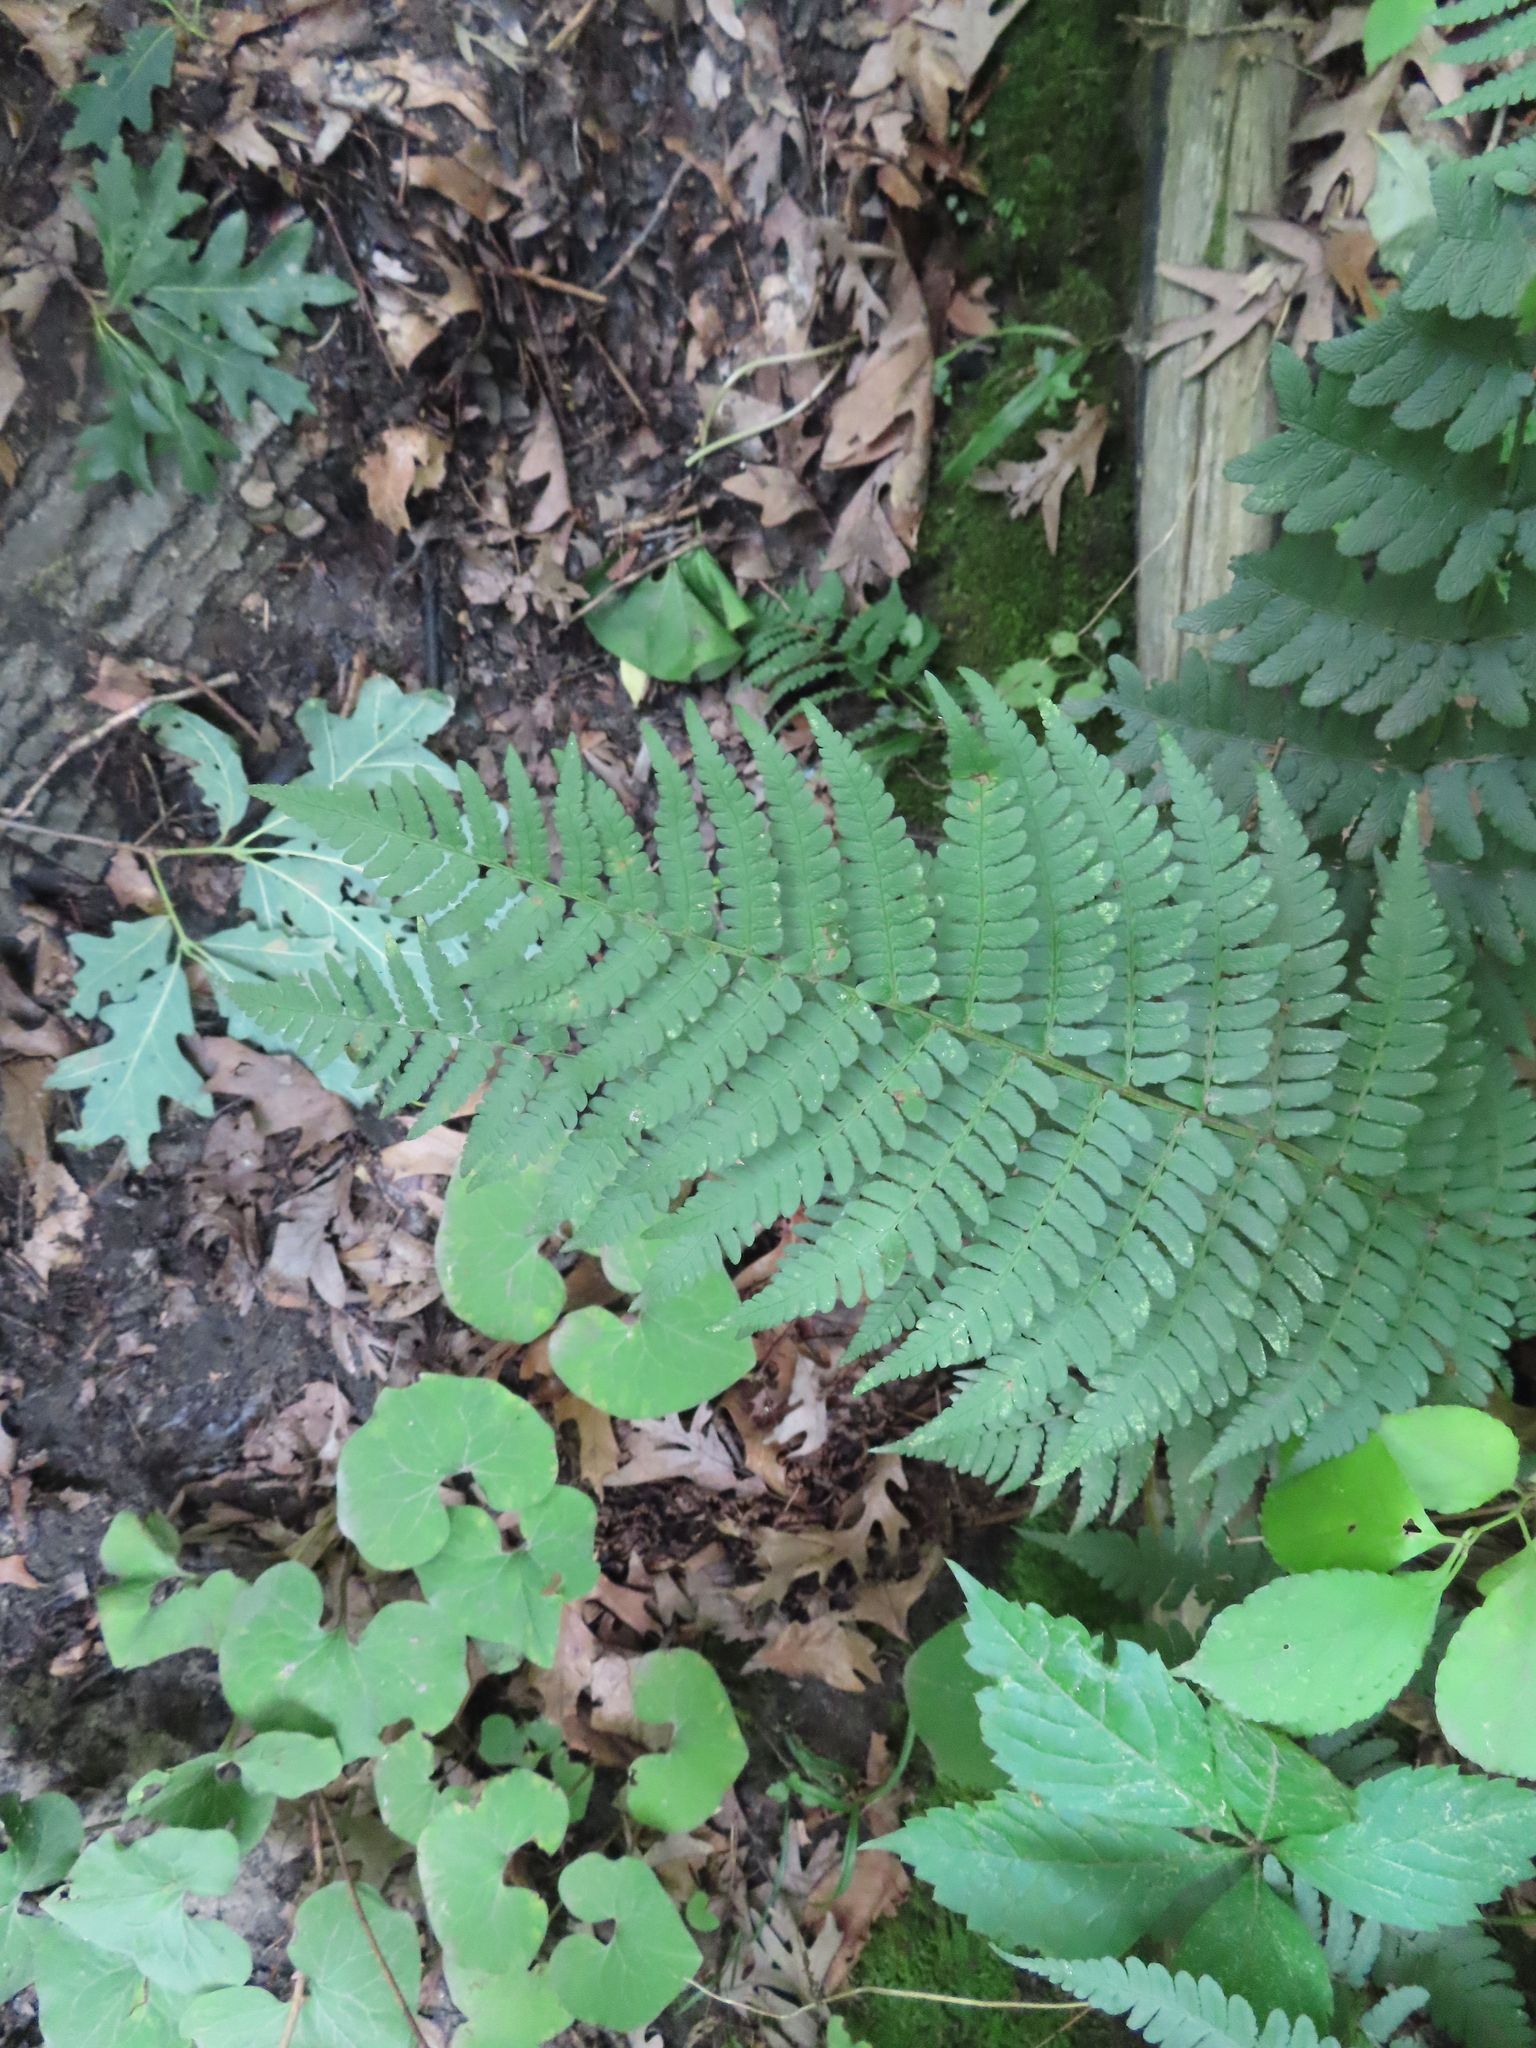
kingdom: Plantae
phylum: Tracheophyta
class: Polypodiopsida
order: Polypodiales
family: Dryopteridaceae
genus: Dryopteris
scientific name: Dryopteris marginalis
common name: Marginal wood fern
